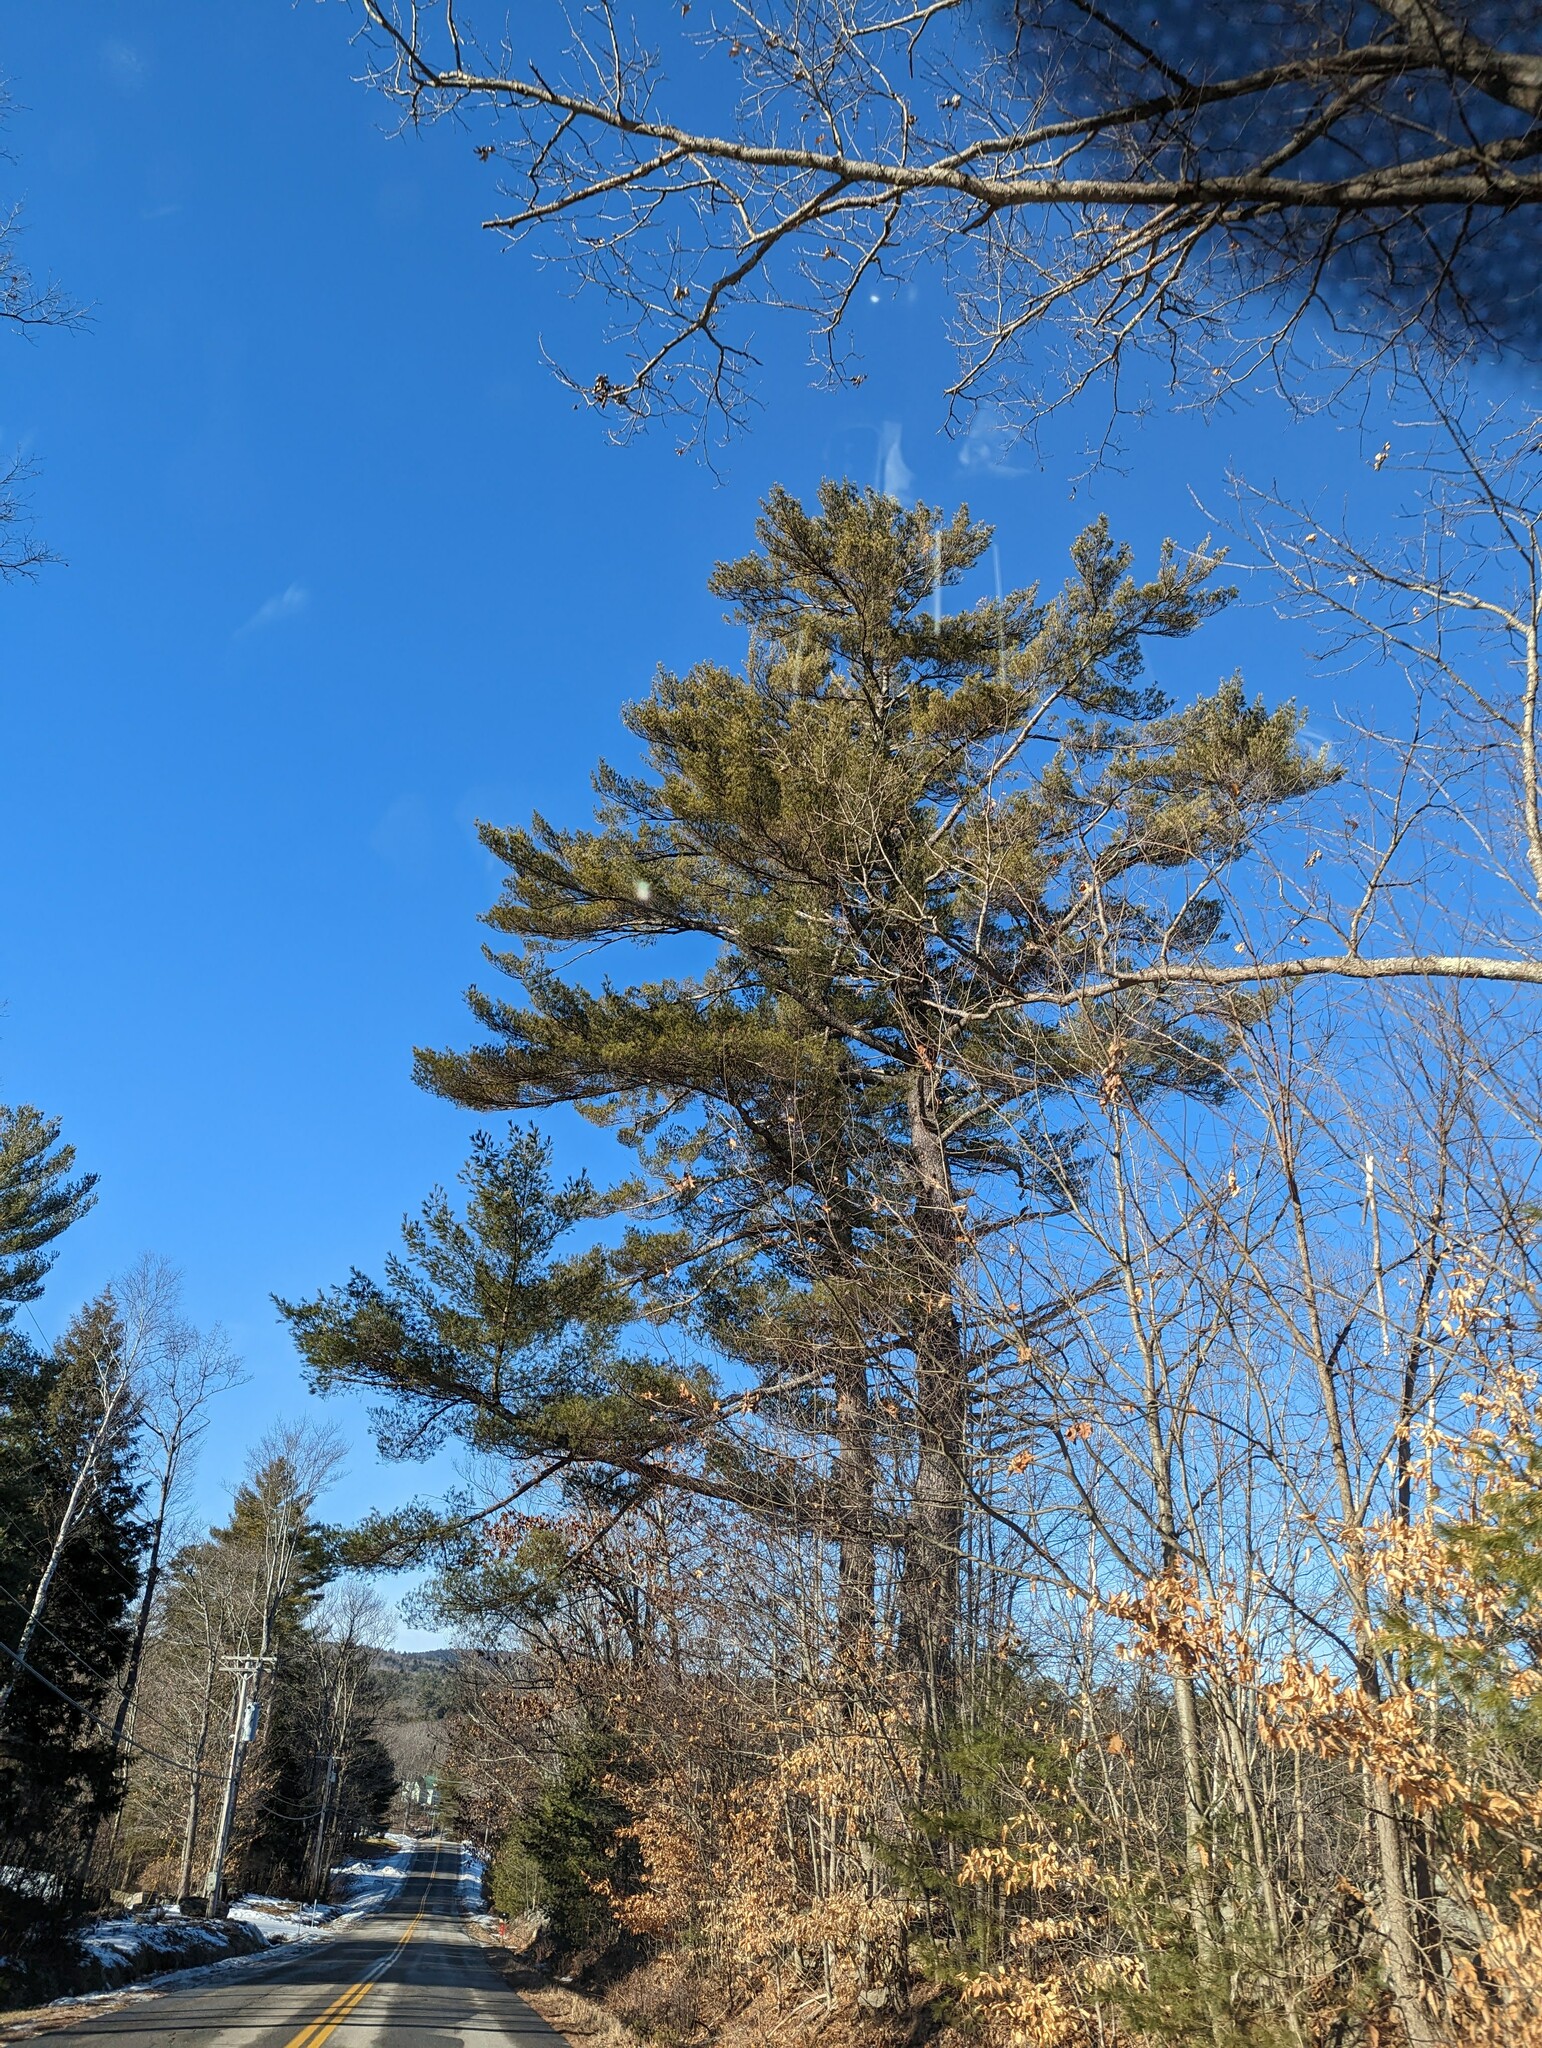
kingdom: Plantae
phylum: Tracheophyta
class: Pinopsida
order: Pinales
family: Pinaceae
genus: Pinus
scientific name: Pinus strobus
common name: Weymouth pine
